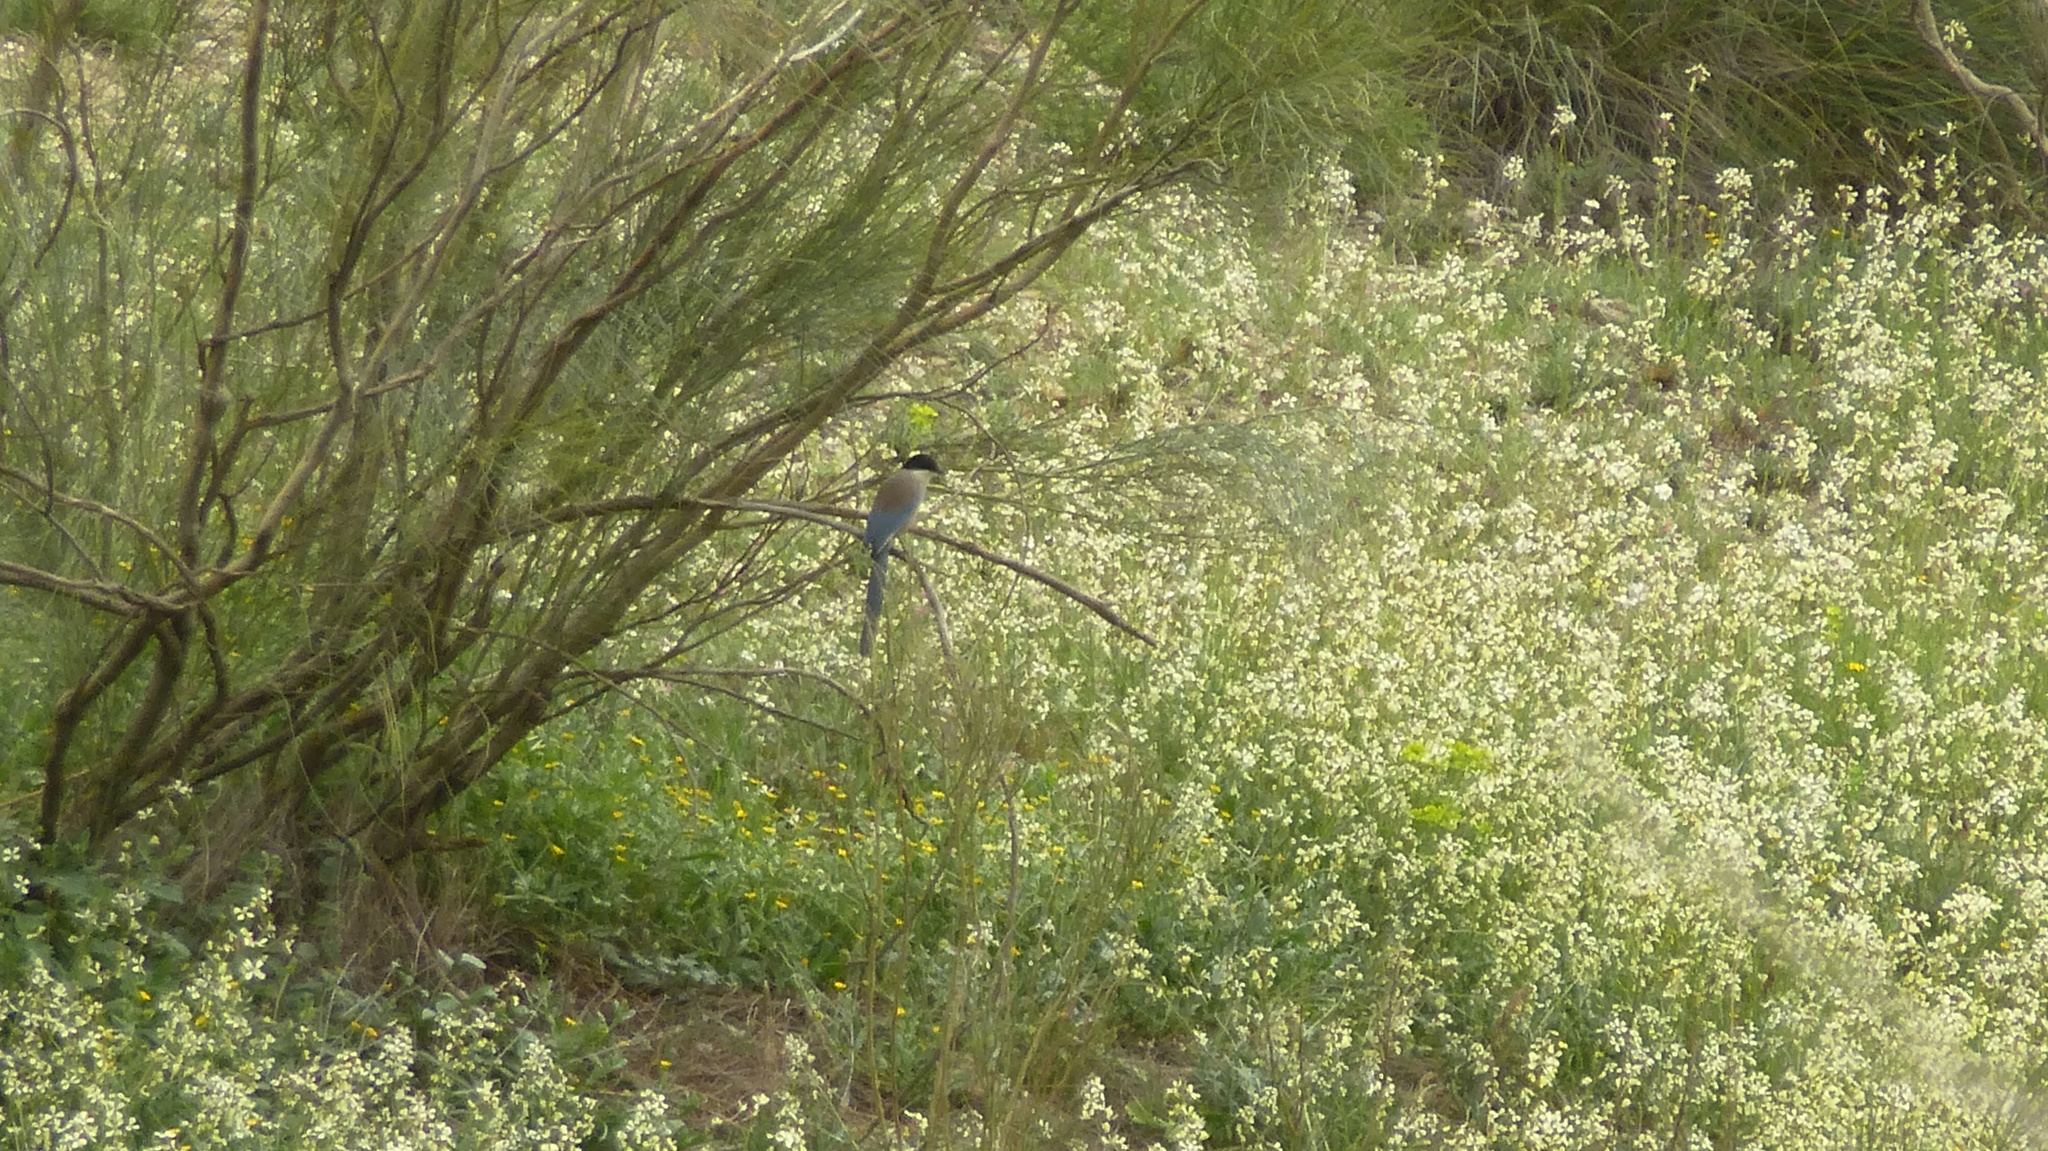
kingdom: Animalia
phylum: Chordata
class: Aves
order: Passeriformes
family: Corvidae
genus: Cyanopica
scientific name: Cyanopica cooki
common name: Iberian magpie
